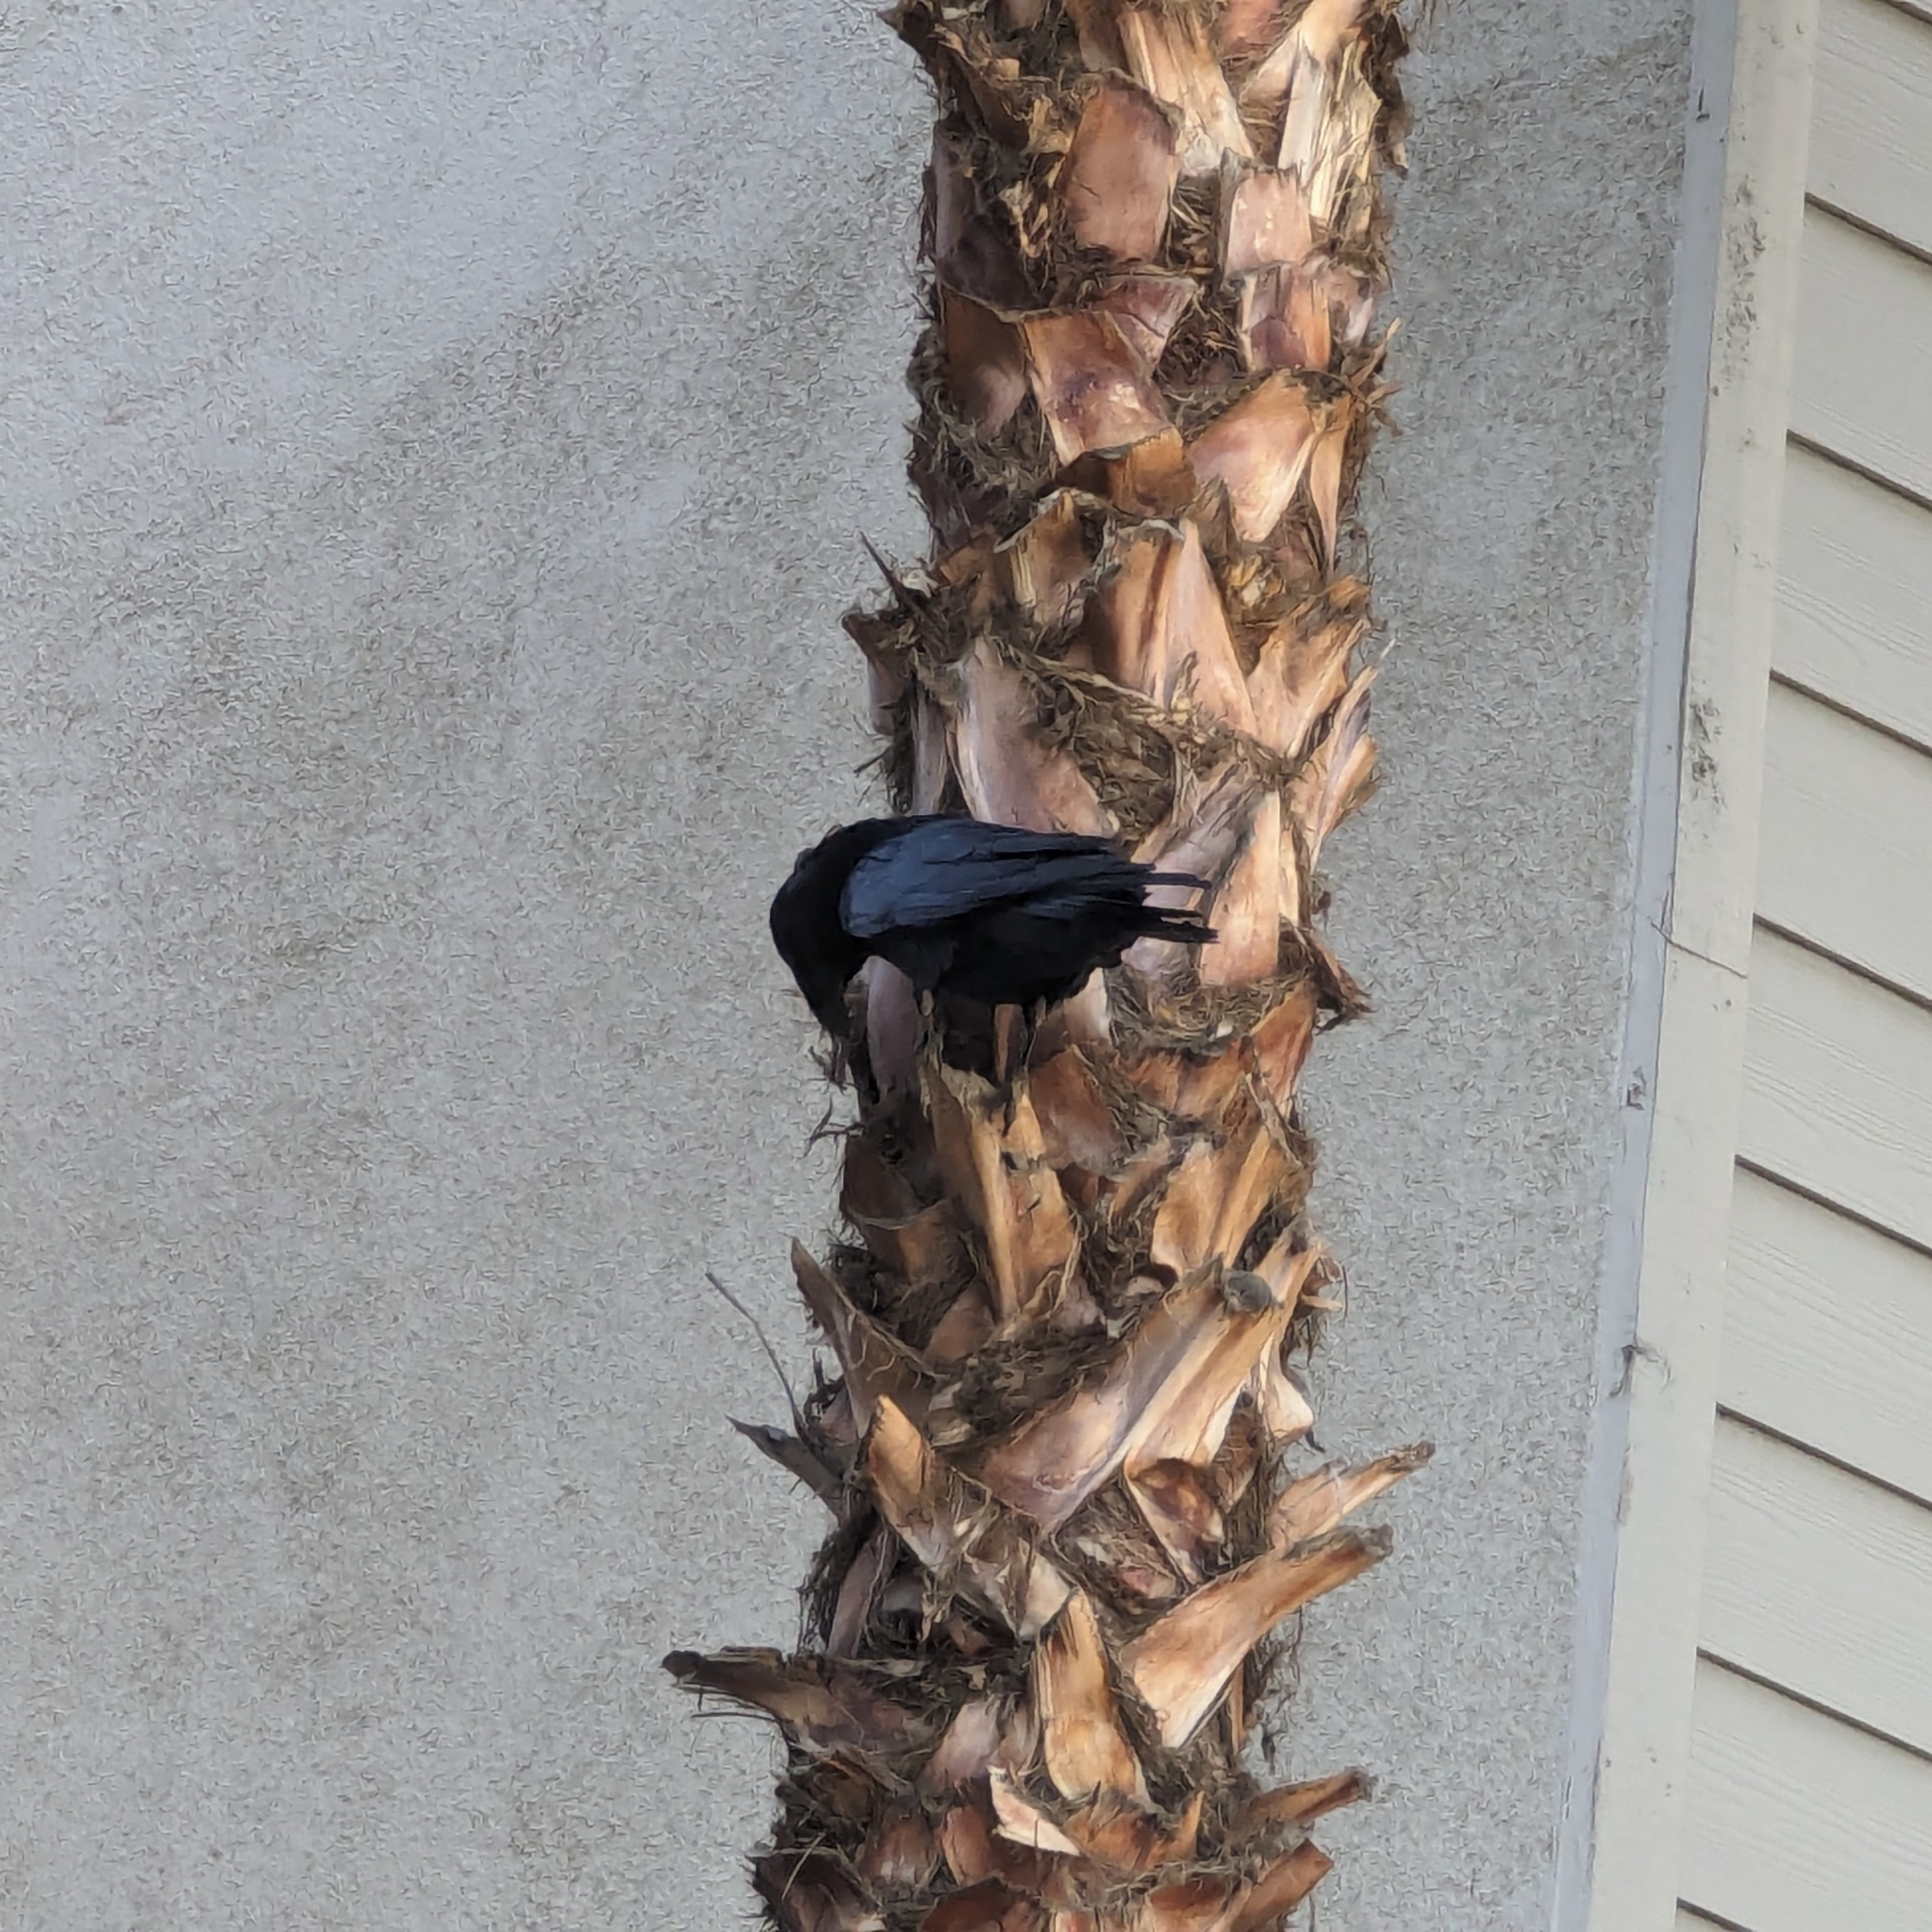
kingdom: Animalia
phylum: Chordata
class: Aves
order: Passeriformes
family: Corvidae
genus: Corvus
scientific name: Corvus corax
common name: Common raven
